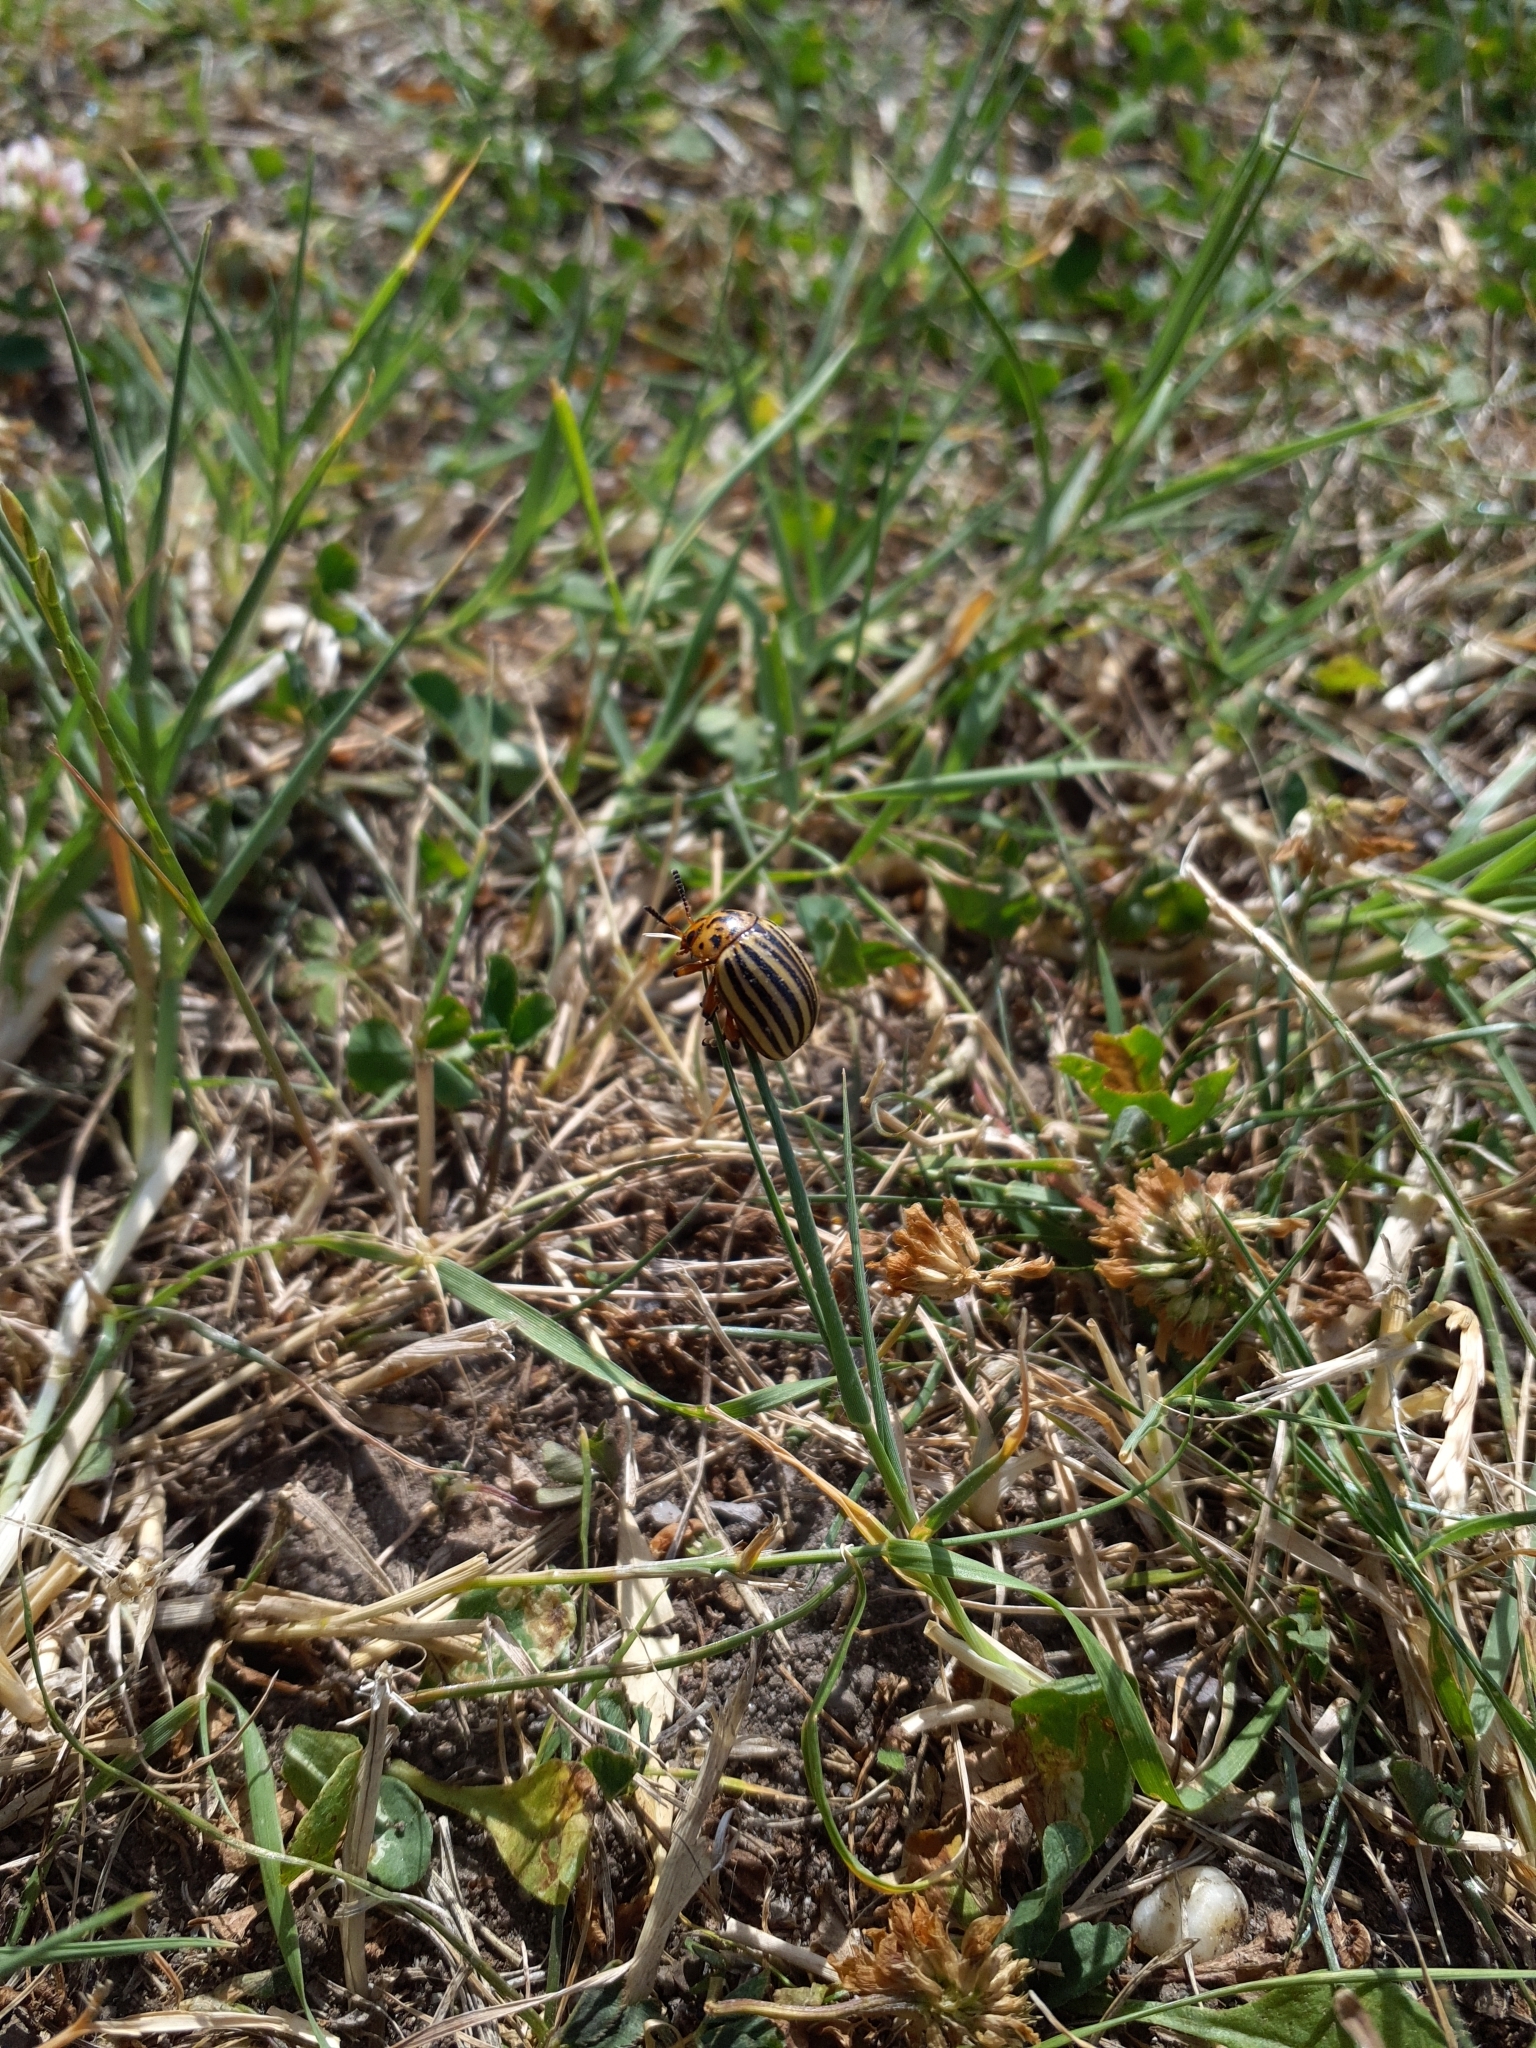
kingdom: Animalia
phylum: Arthropoda
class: Insecta
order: Coleoptera
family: Chrysomelidae
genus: Leptinotarsa
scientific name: Leptinotarsa decemlineata
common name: Colorado potato beetle
